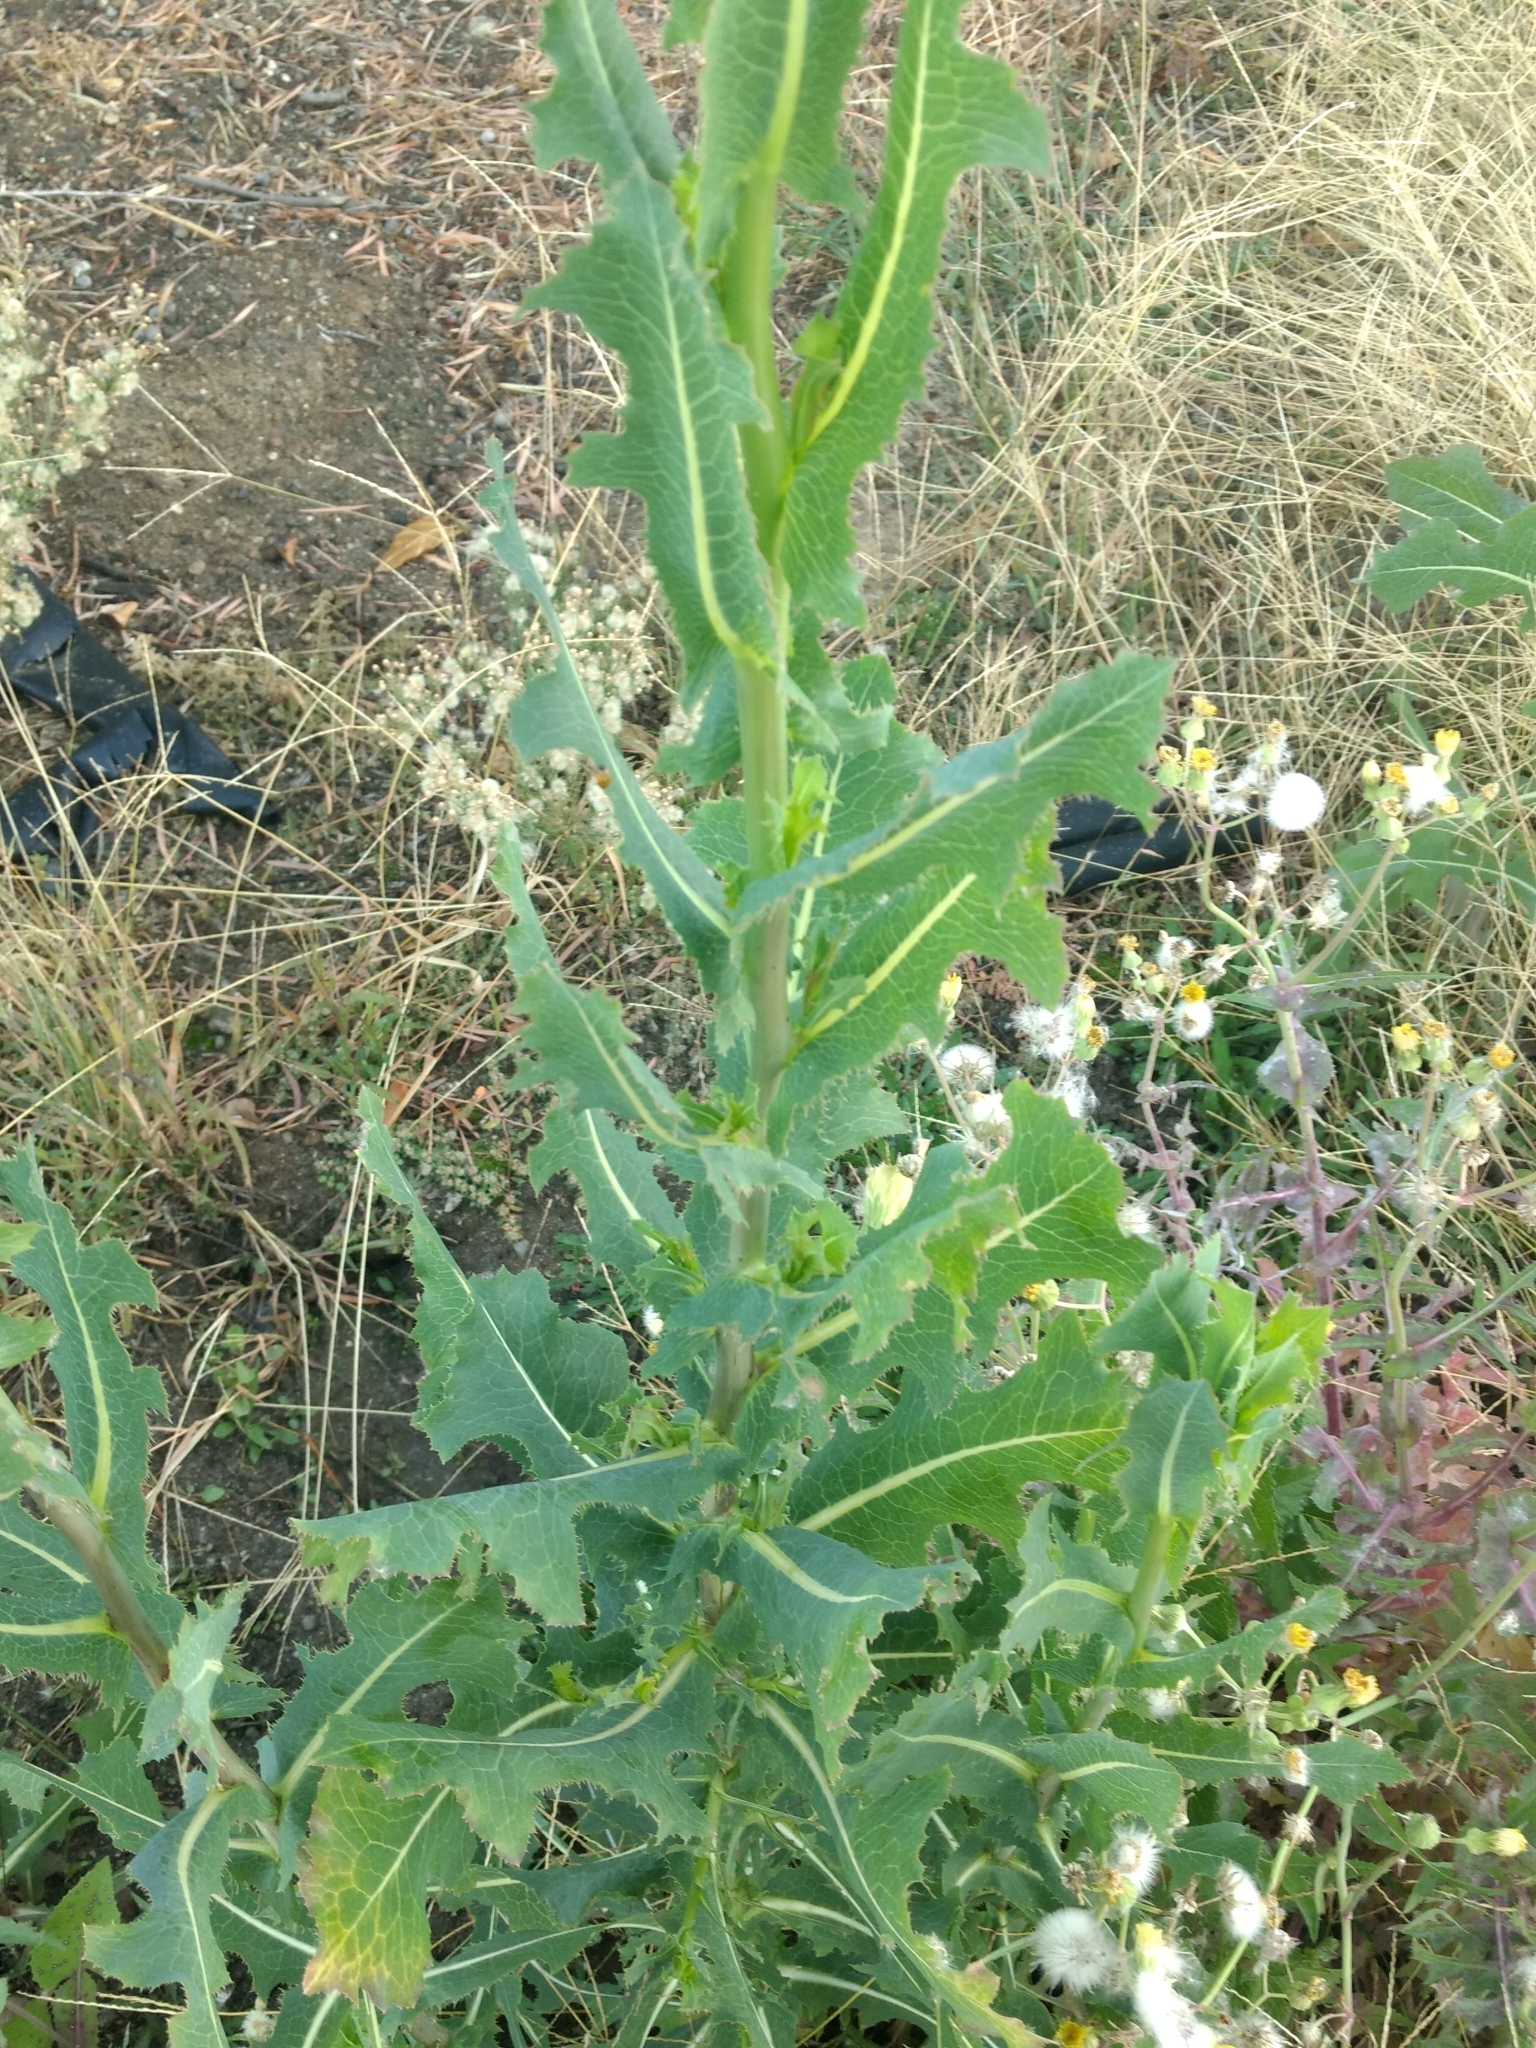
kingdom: Plantae
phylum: Tracheophyta
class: Magnoliopsida
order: Asterales
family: Asteraceae
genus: Lactuca
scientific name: Lactuca serriola
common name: Prickly lettuce
